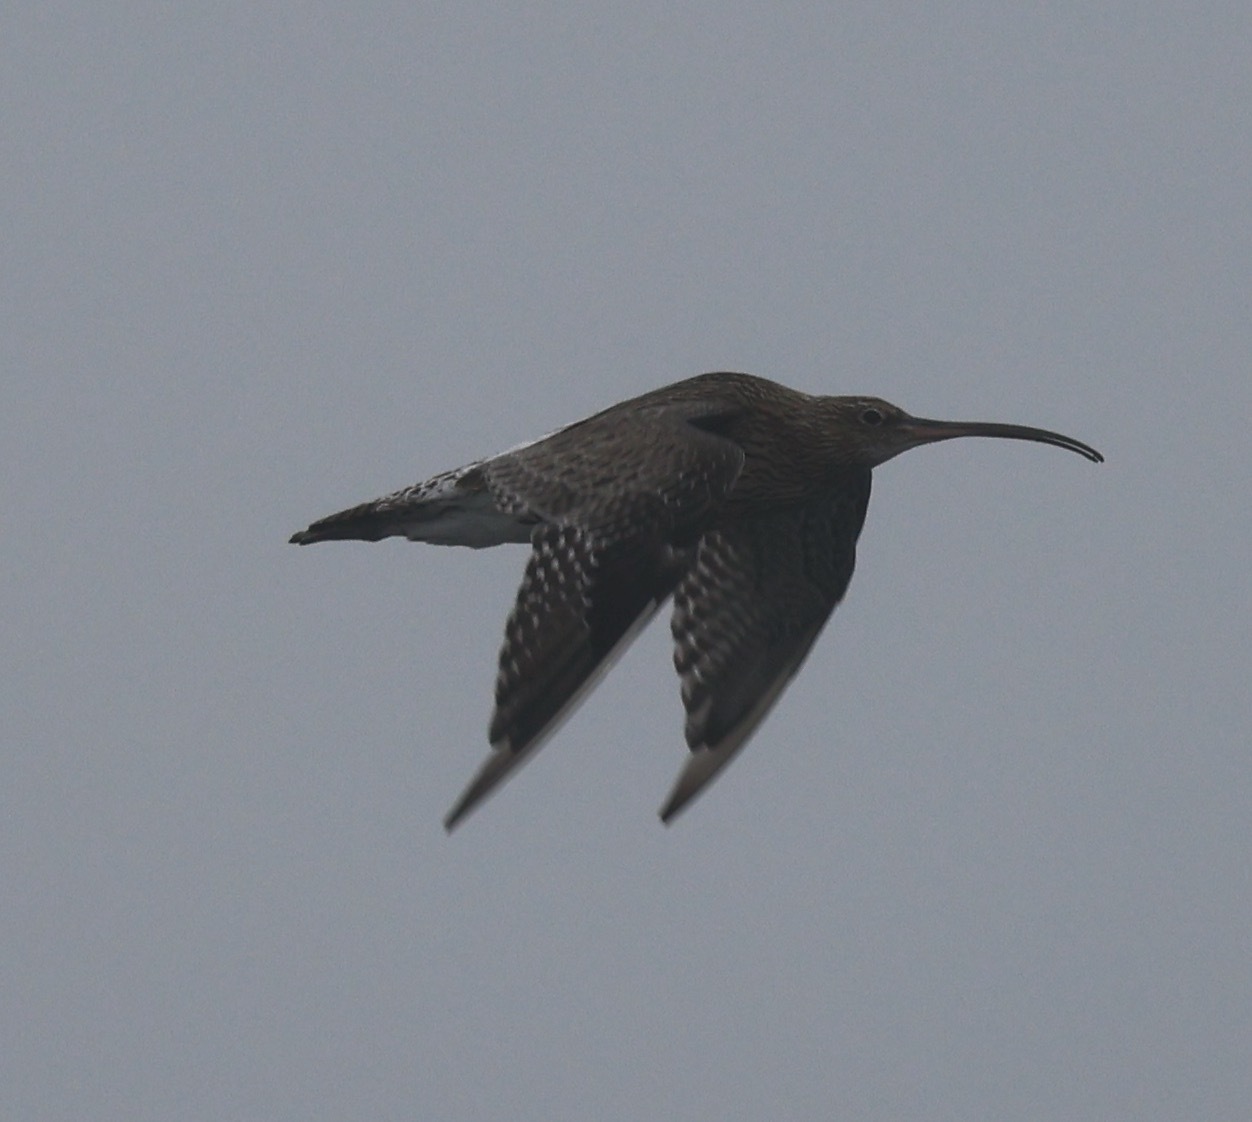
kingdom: Animalia
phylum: Chordata
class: Aves
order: Charadriiformes
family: Scolopacidae
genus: Numenius
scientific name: Numenius arquata
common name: Eurasian curlew
